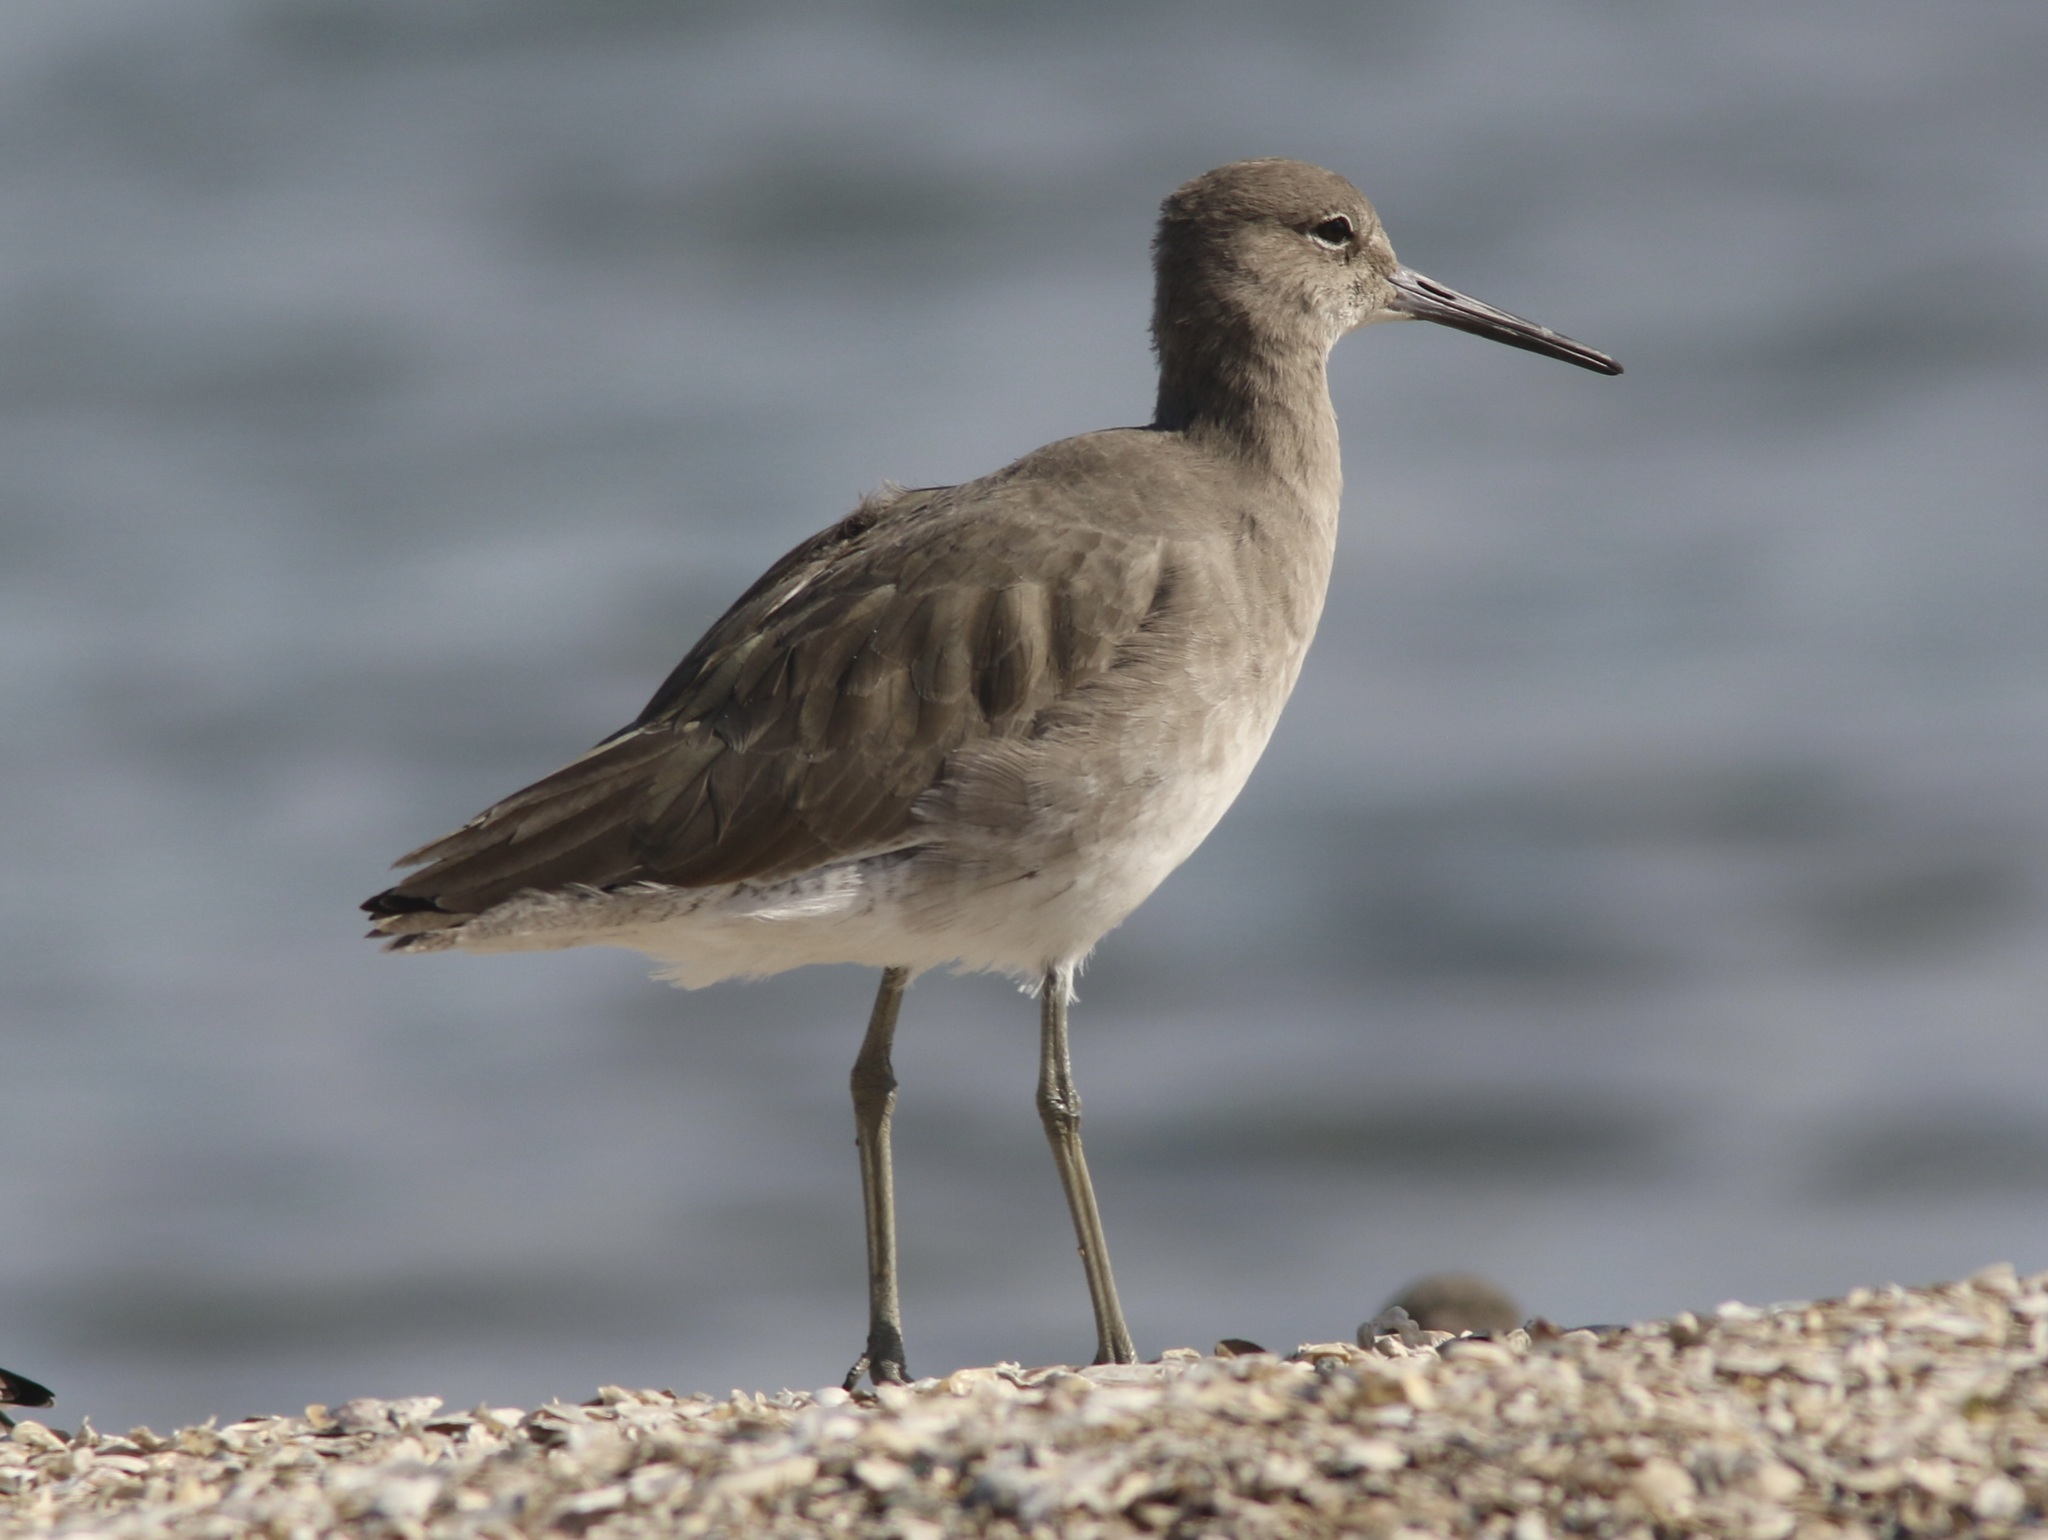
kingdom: Animalia
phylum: Chordata
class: Aves
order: Charadriiformes
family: Scolopacidae
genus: Tringa
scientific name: Tringa semipalmata
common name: Willet
